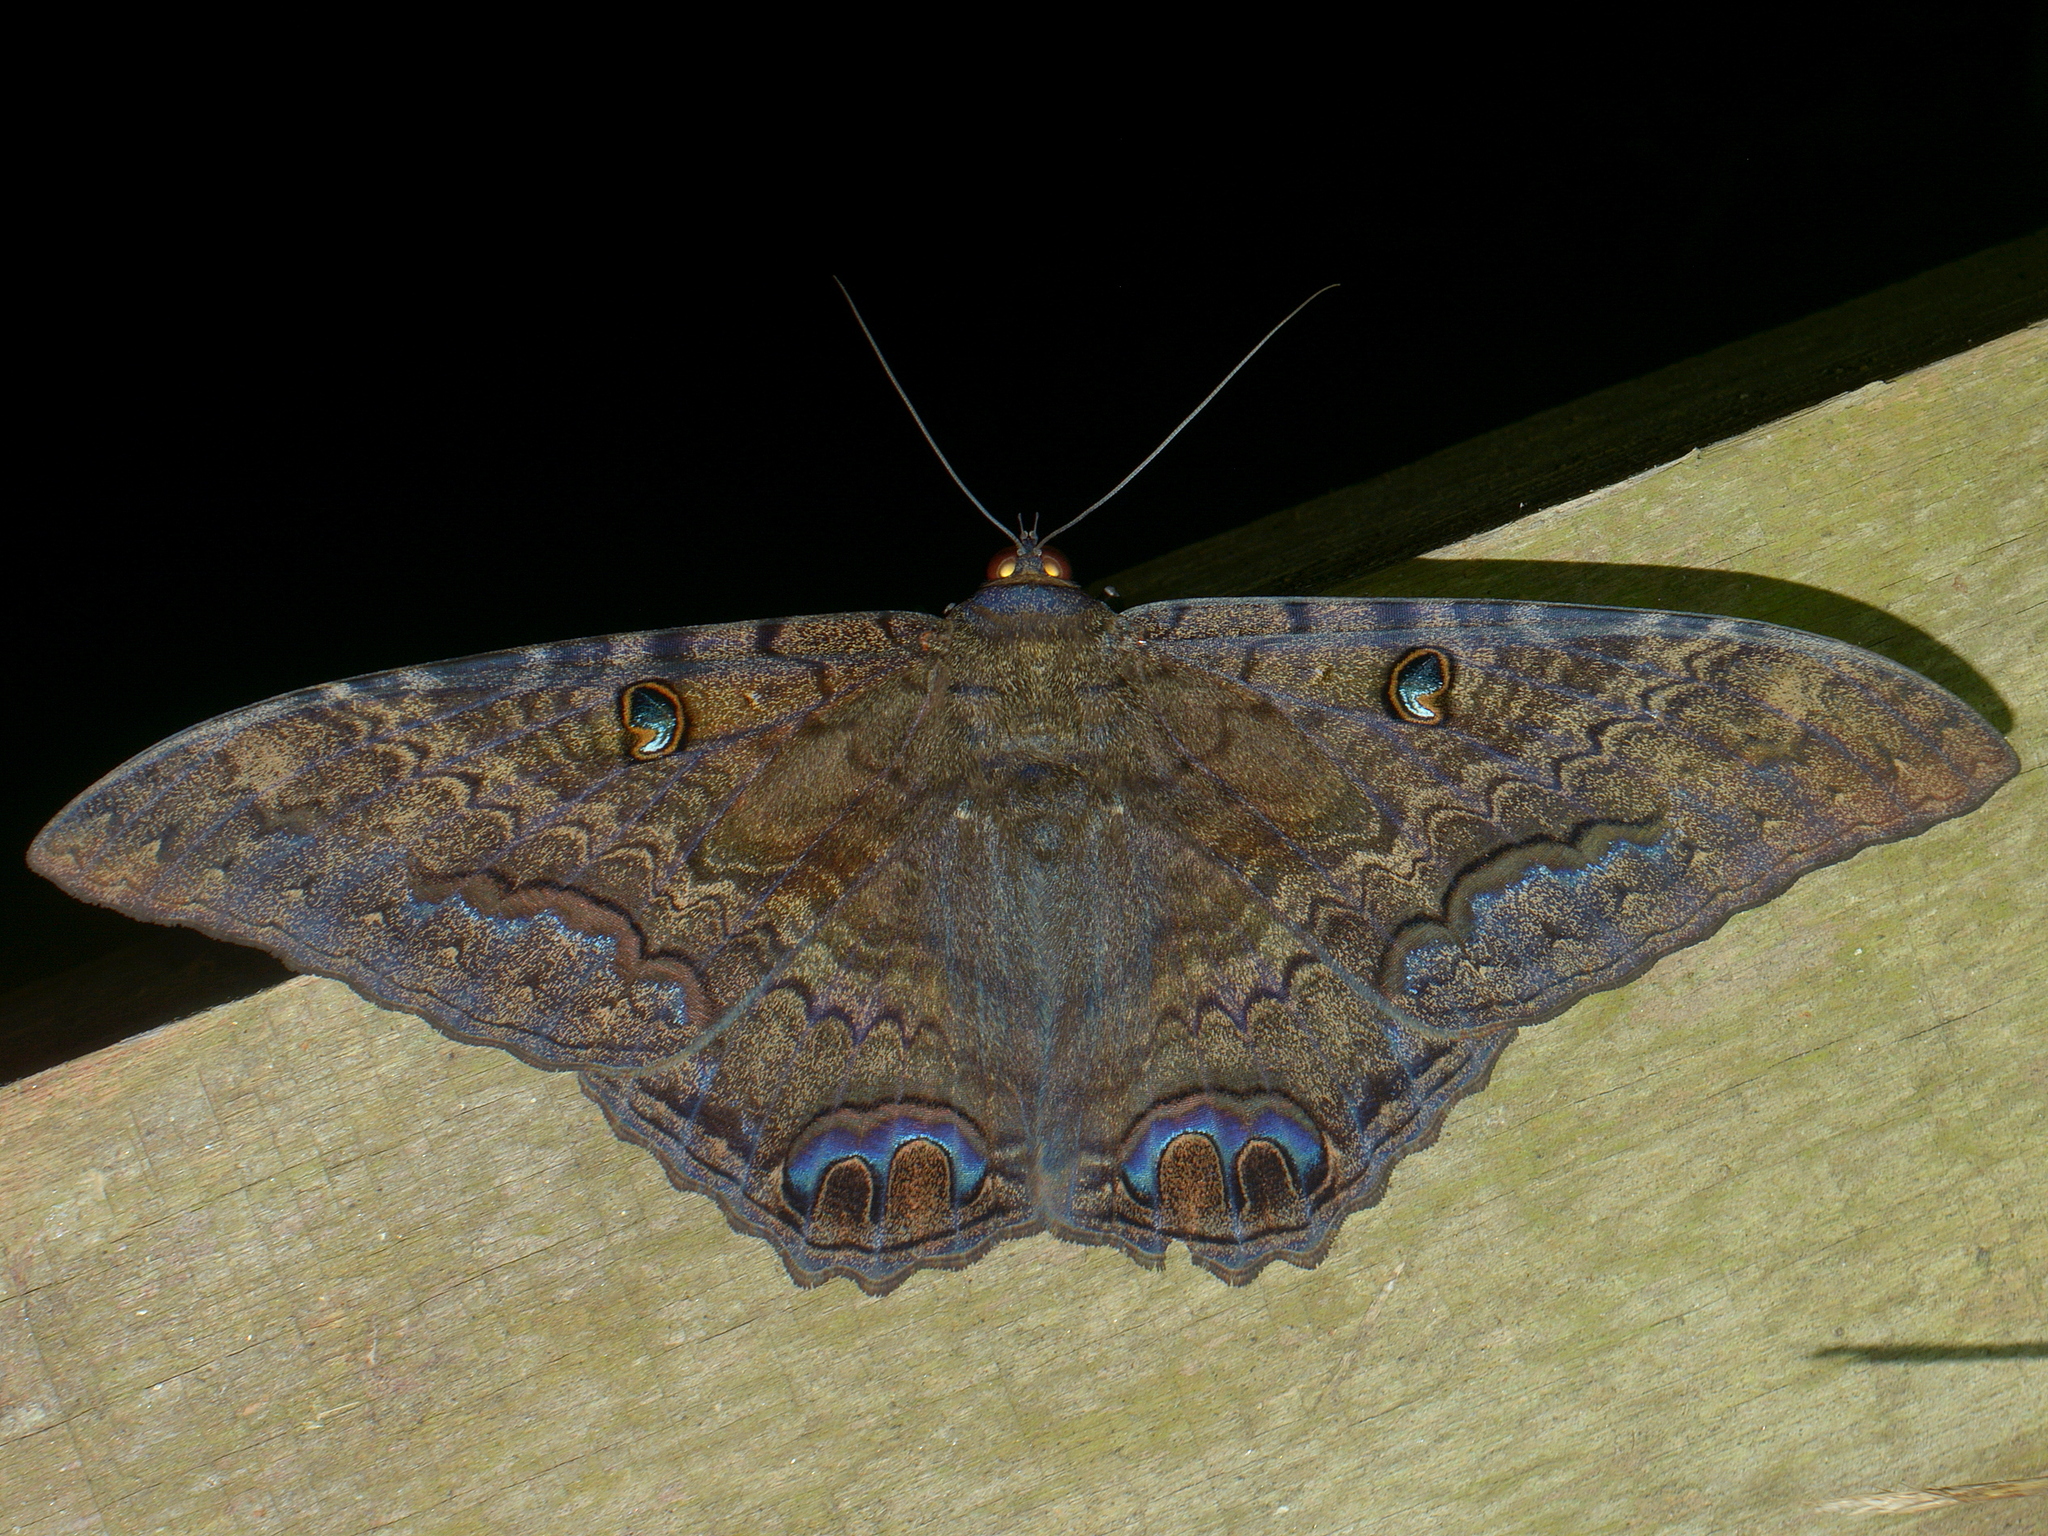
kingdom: Animalia
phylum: Arthropoda
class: Insecta
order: Lepidoptera
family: Erebidae
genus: Ascalapha
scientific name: Ascalapha odorata
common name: Black witch
